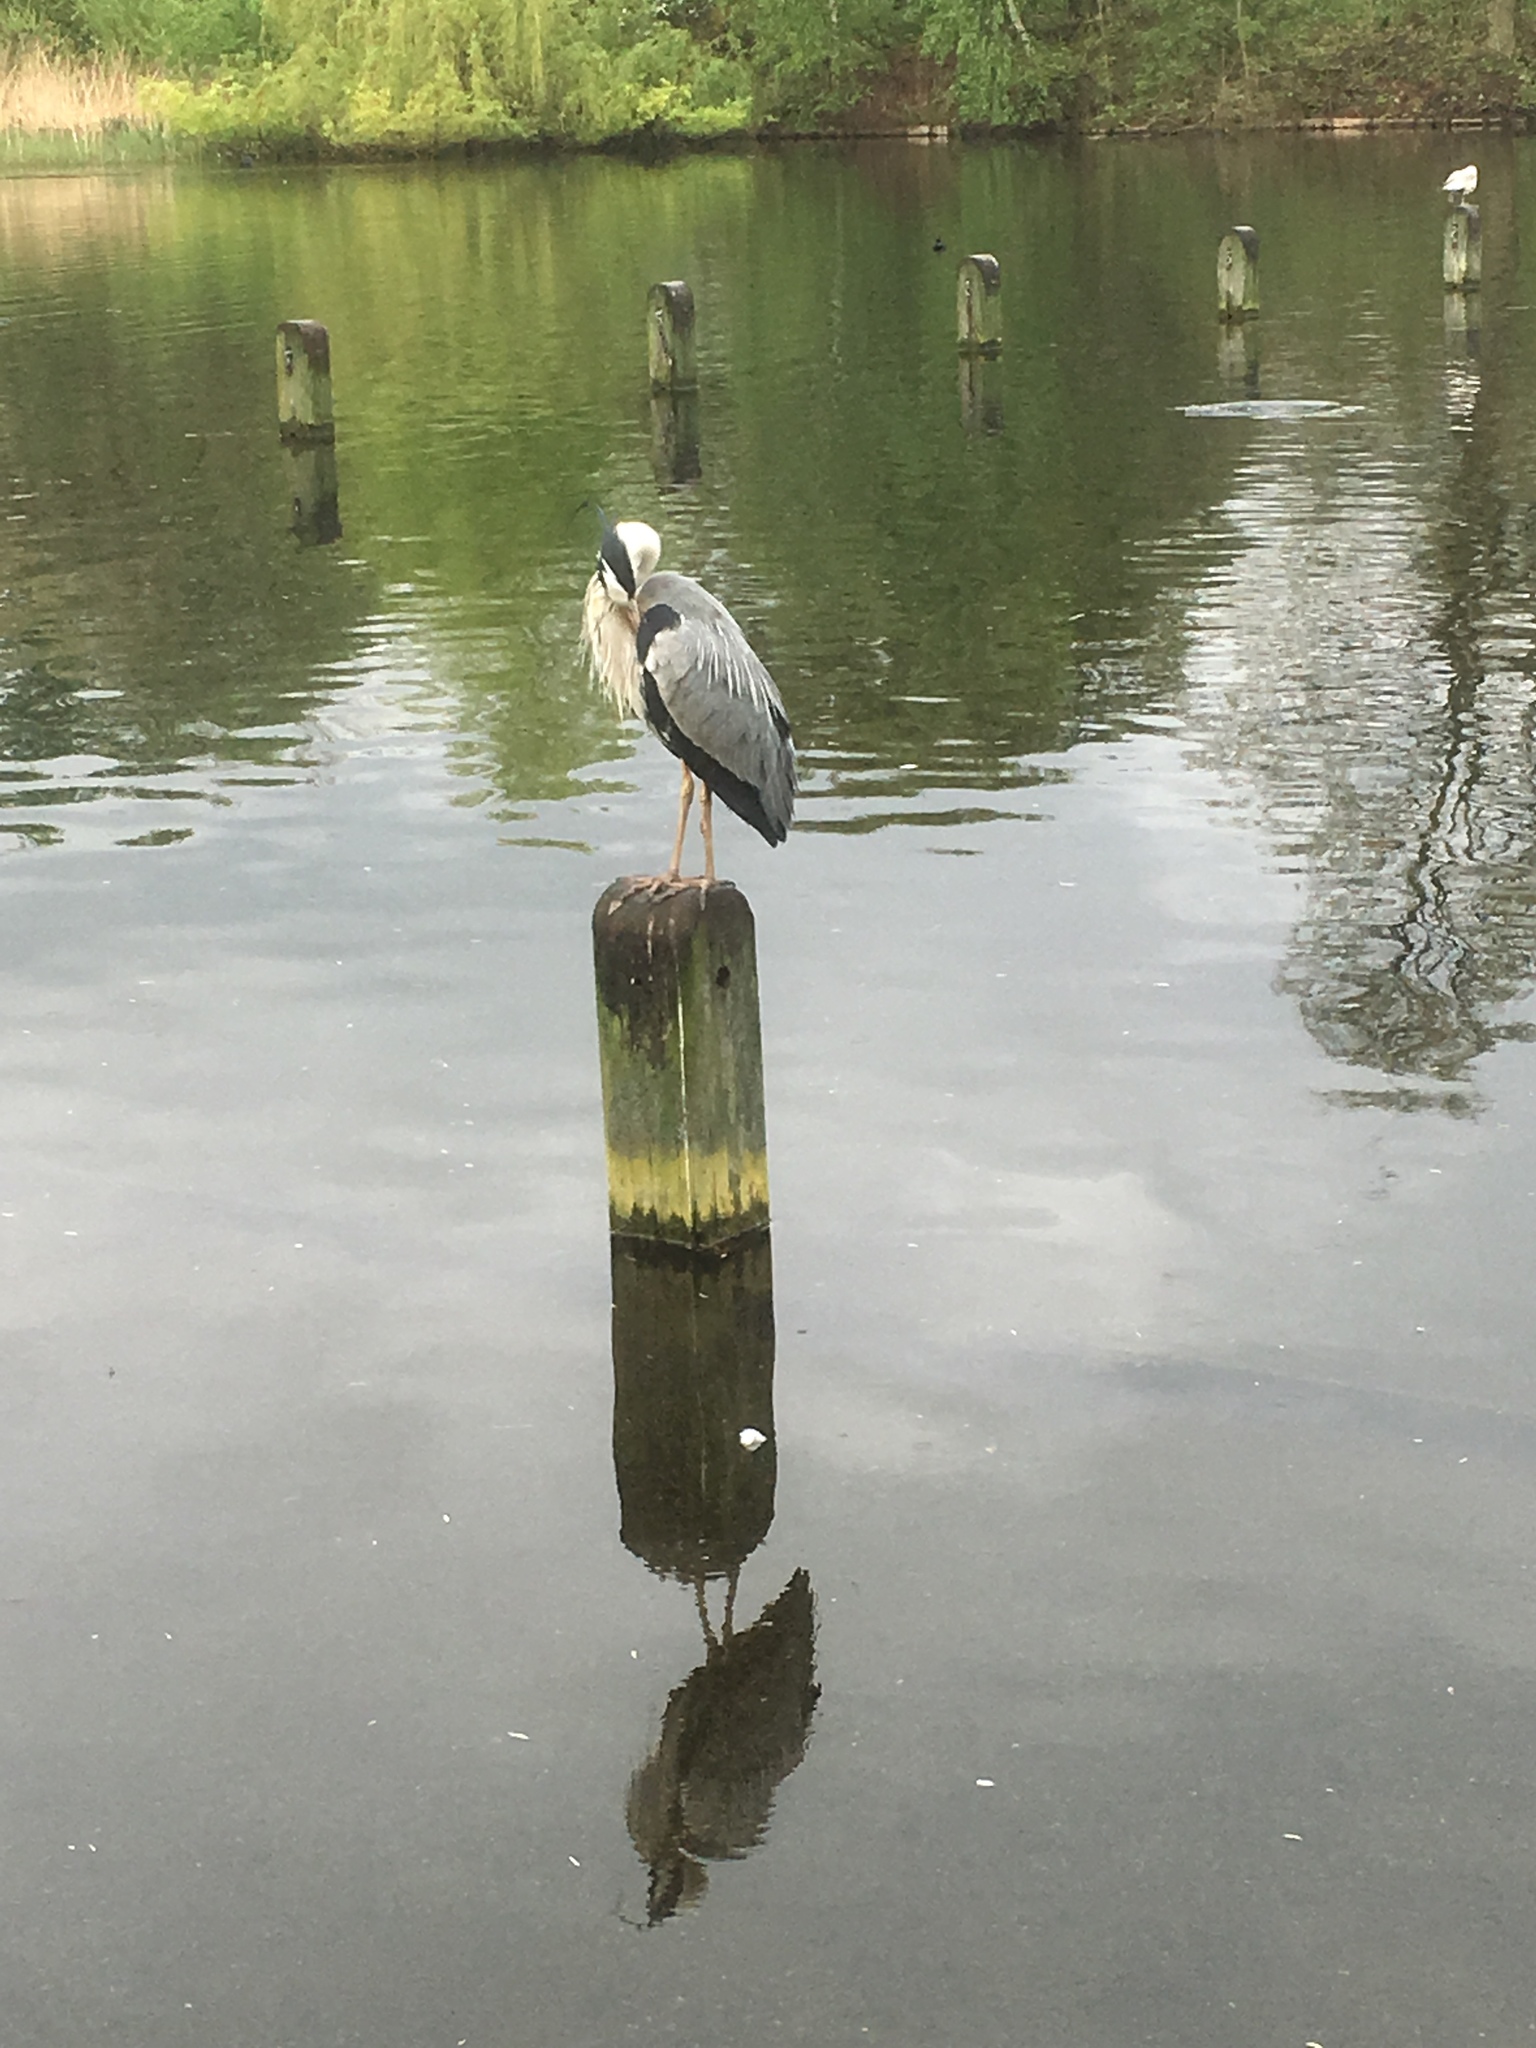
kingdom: Animalia
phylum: Chordata
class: Aves
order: Pelecaniformes
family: Ardeidae
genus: Ardea
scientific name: Ardea cinerea
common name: Grey heron
